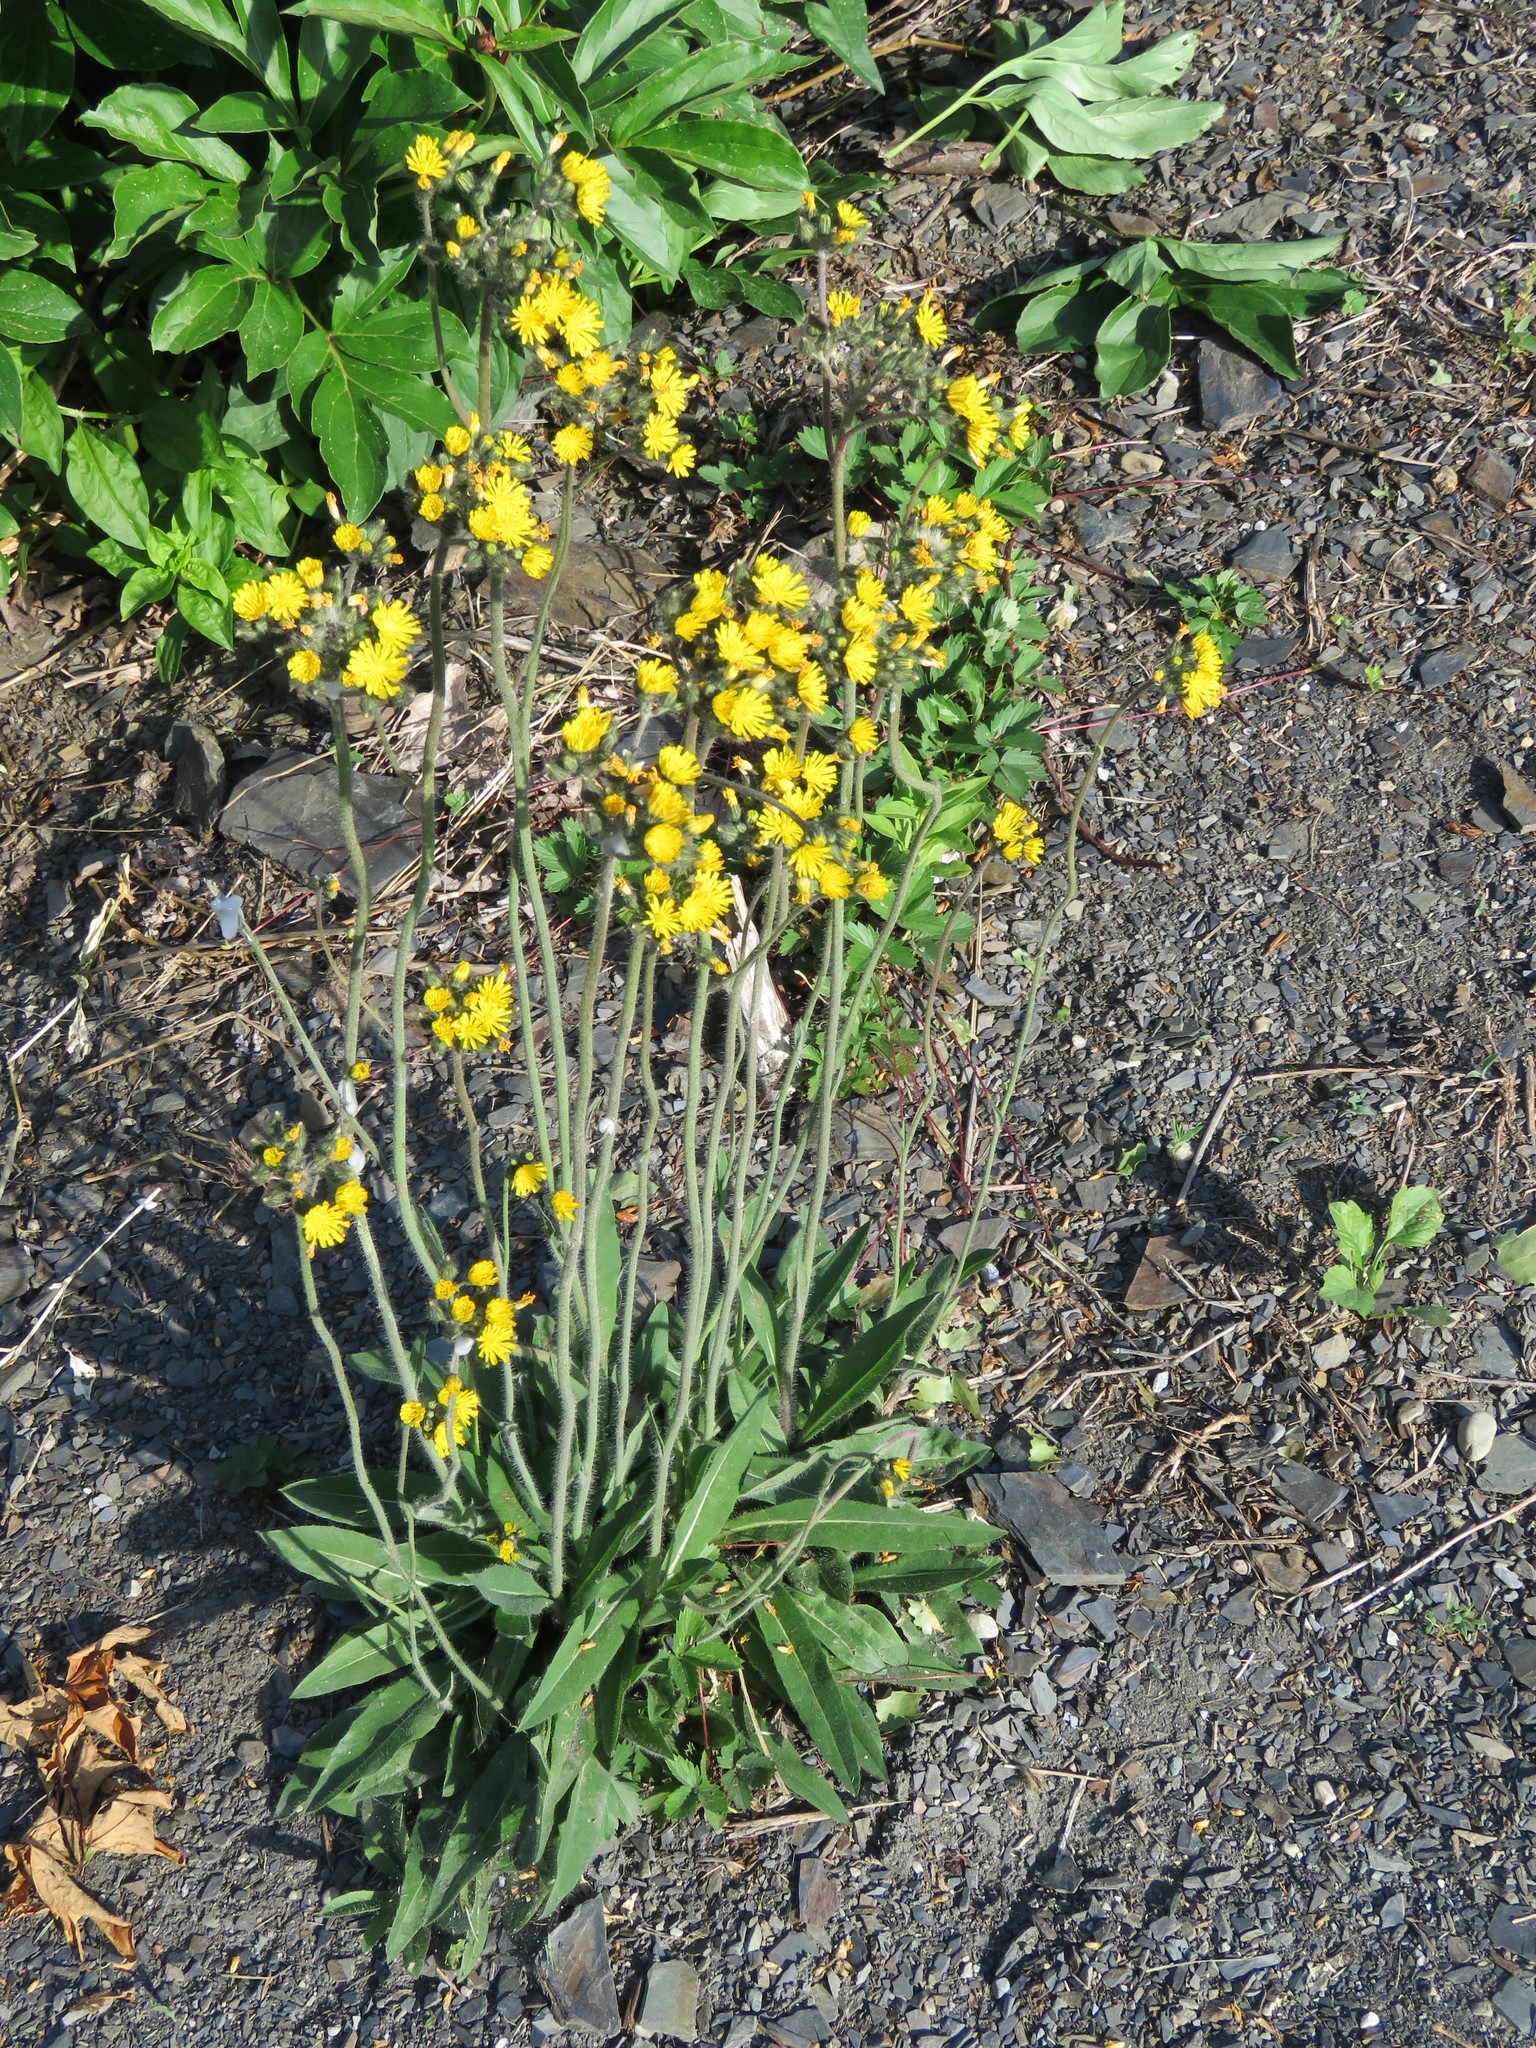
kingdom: Plantae
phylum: Tracheophyta
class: Magnoliopsida
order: Asterales
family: Asteraceae
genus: Pilosella
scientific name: Pilosella caespitosa
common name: Yellow fox-and-cubs
